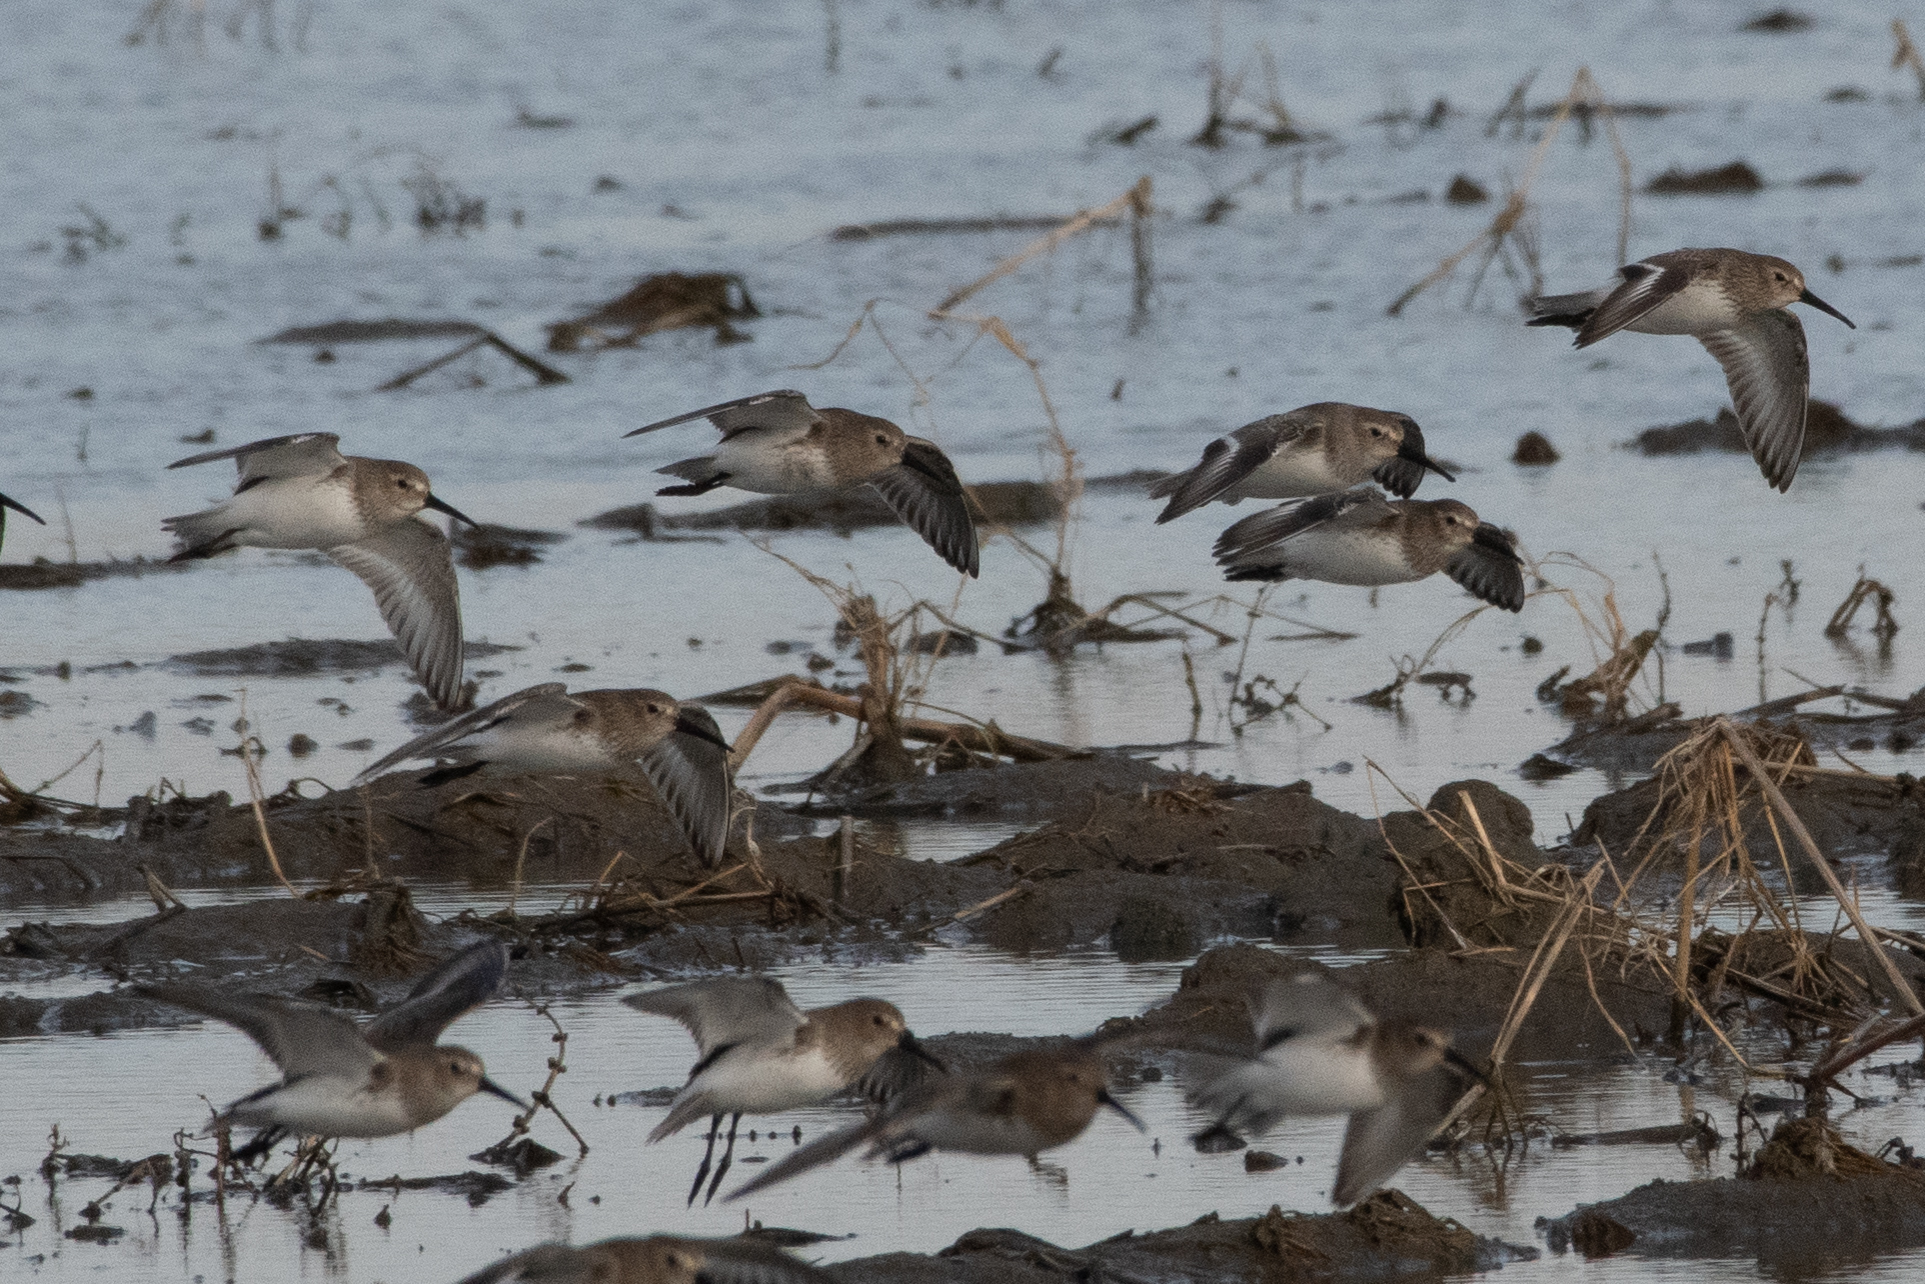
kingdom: Animalia
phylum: Chordata
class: Aves
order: Charadriiformes
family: Scolopacidae
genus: Calidris
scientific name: Calidris alpina
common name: Dunlin
